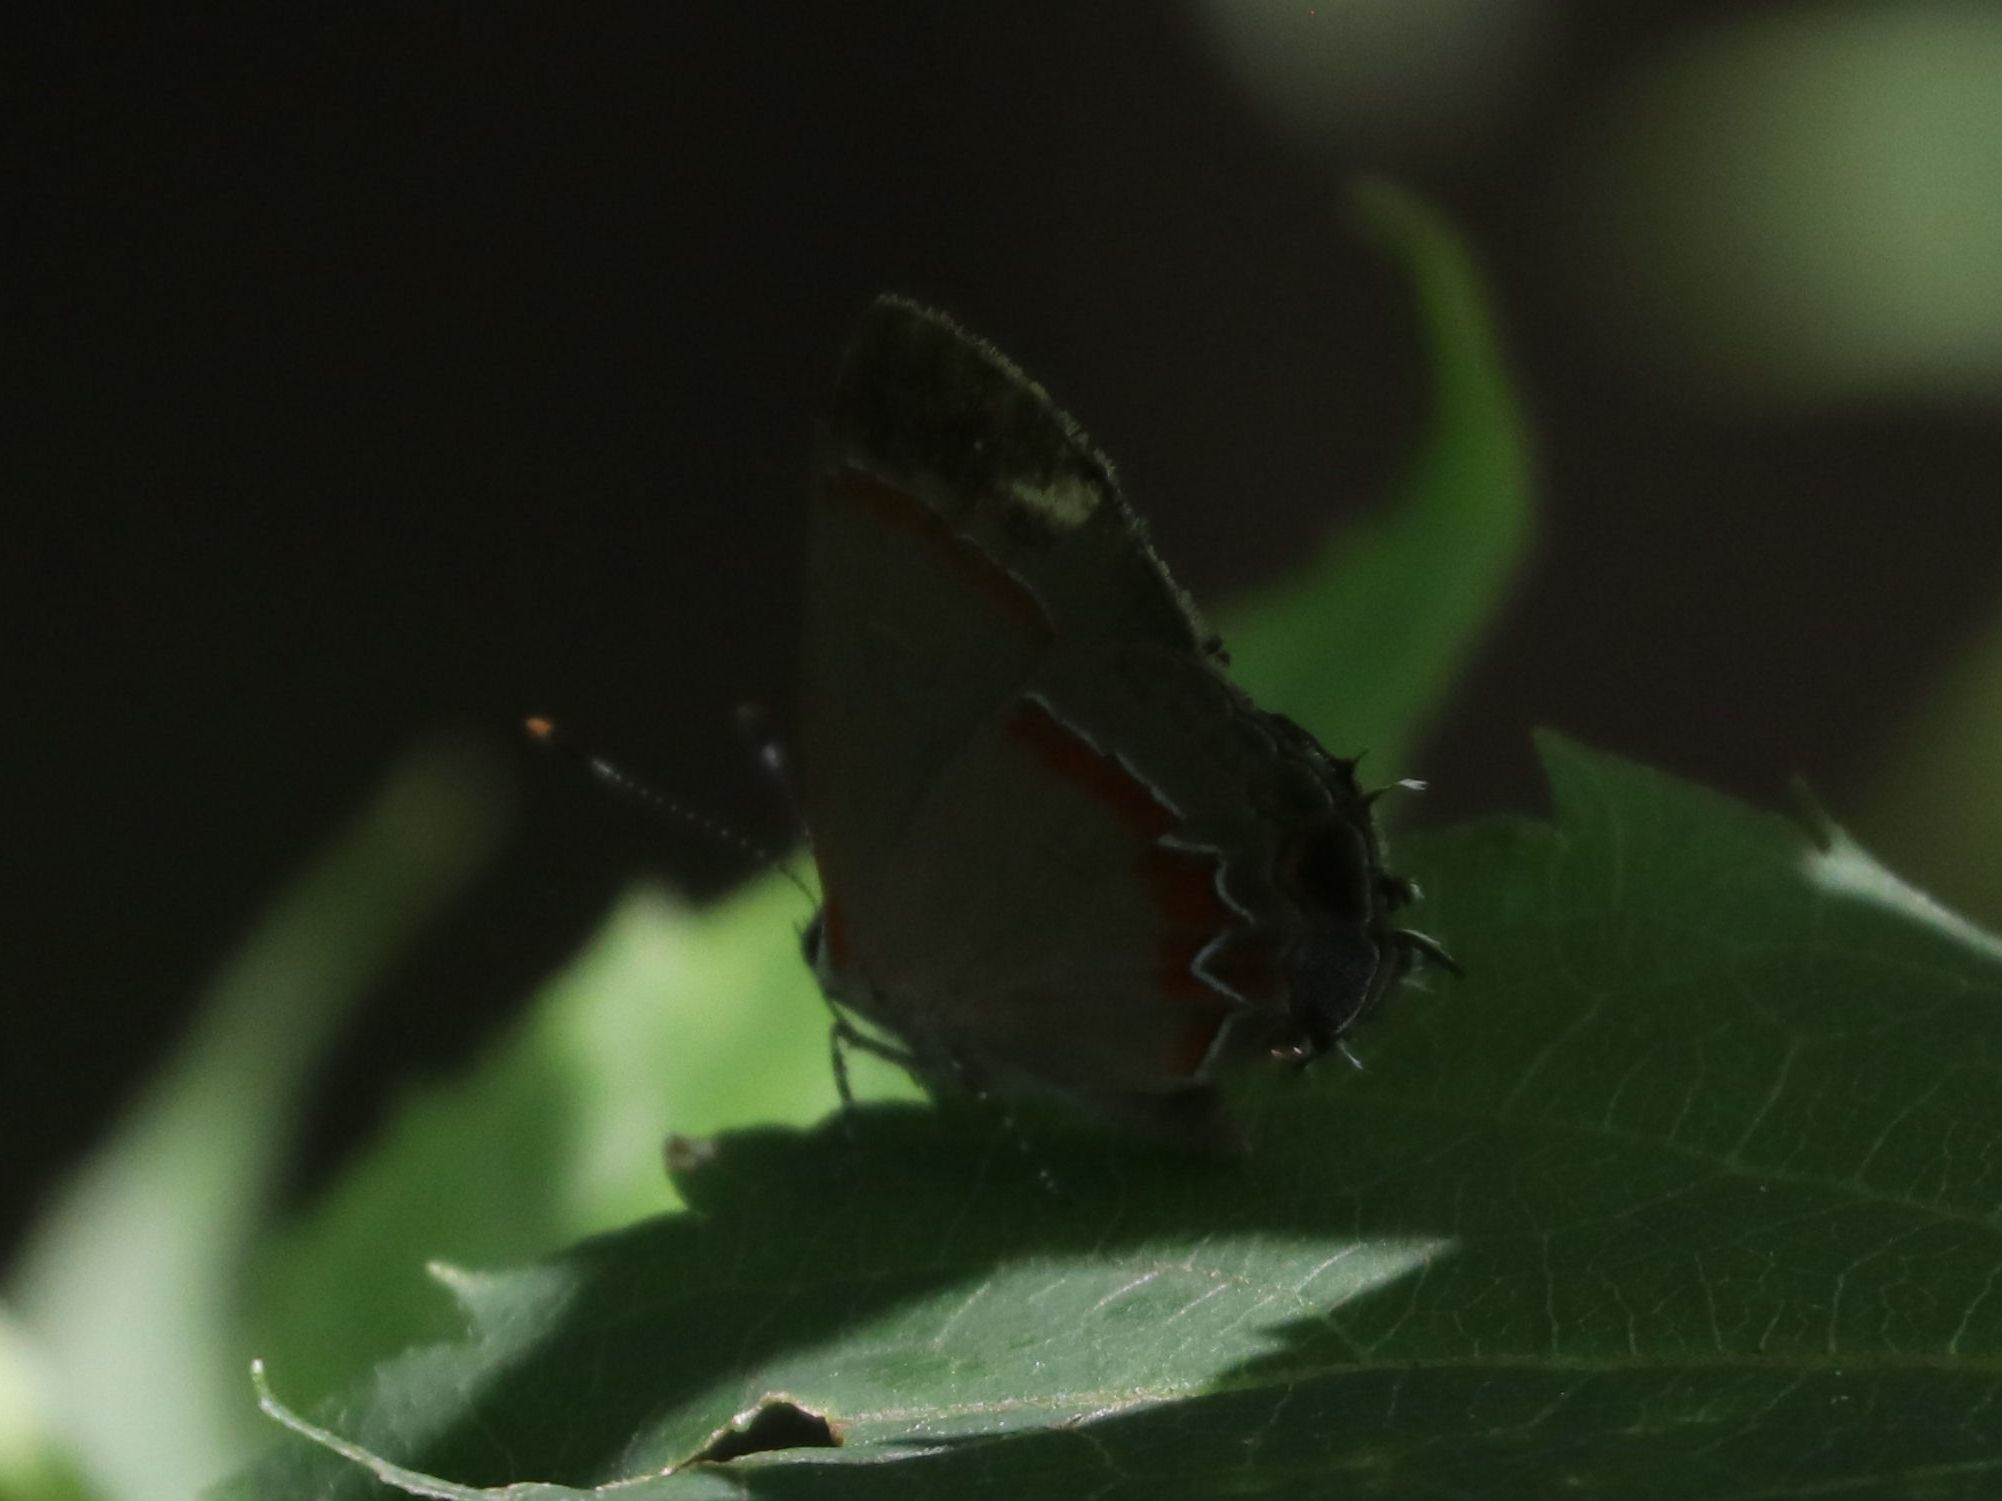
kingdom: Animalia
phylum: Arthropoda
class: Insecta
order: Lepidoptera
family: Lycaenidae
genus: Calycopis
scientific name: Calycopis cecrops
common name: Red-banded hairstreak
